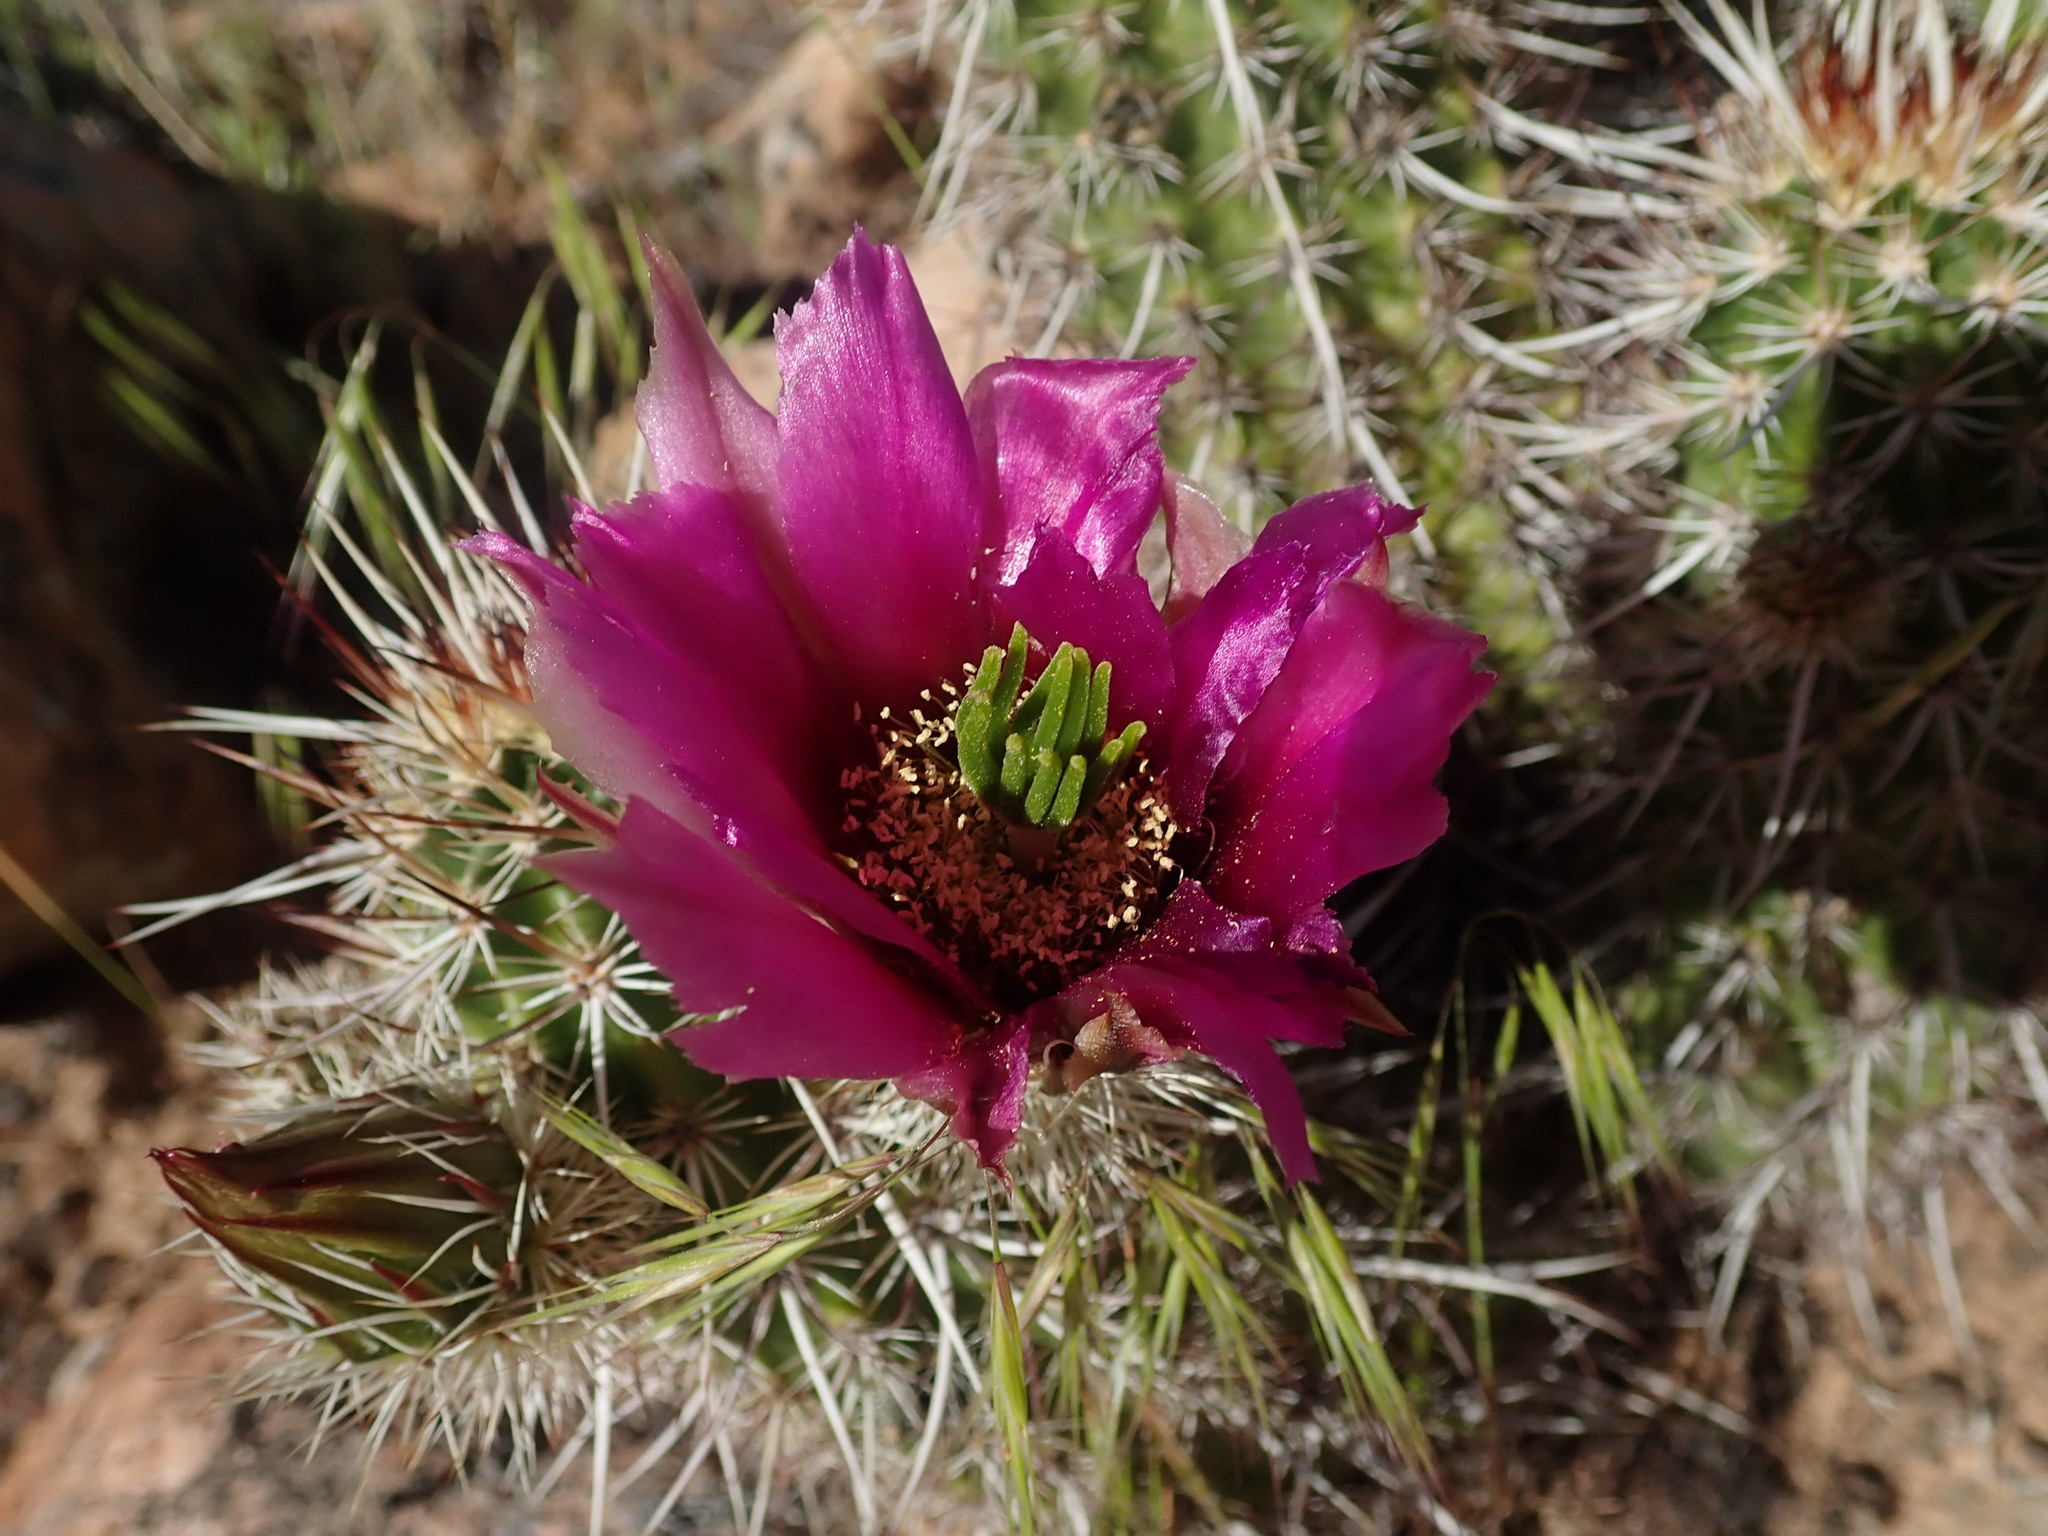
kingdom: Plantae
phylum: Tracheophyta
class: Magnoliopsida
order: Caryophyllales
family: Cactaceae
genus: Echinocereus
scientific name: Echinocereus relictus
